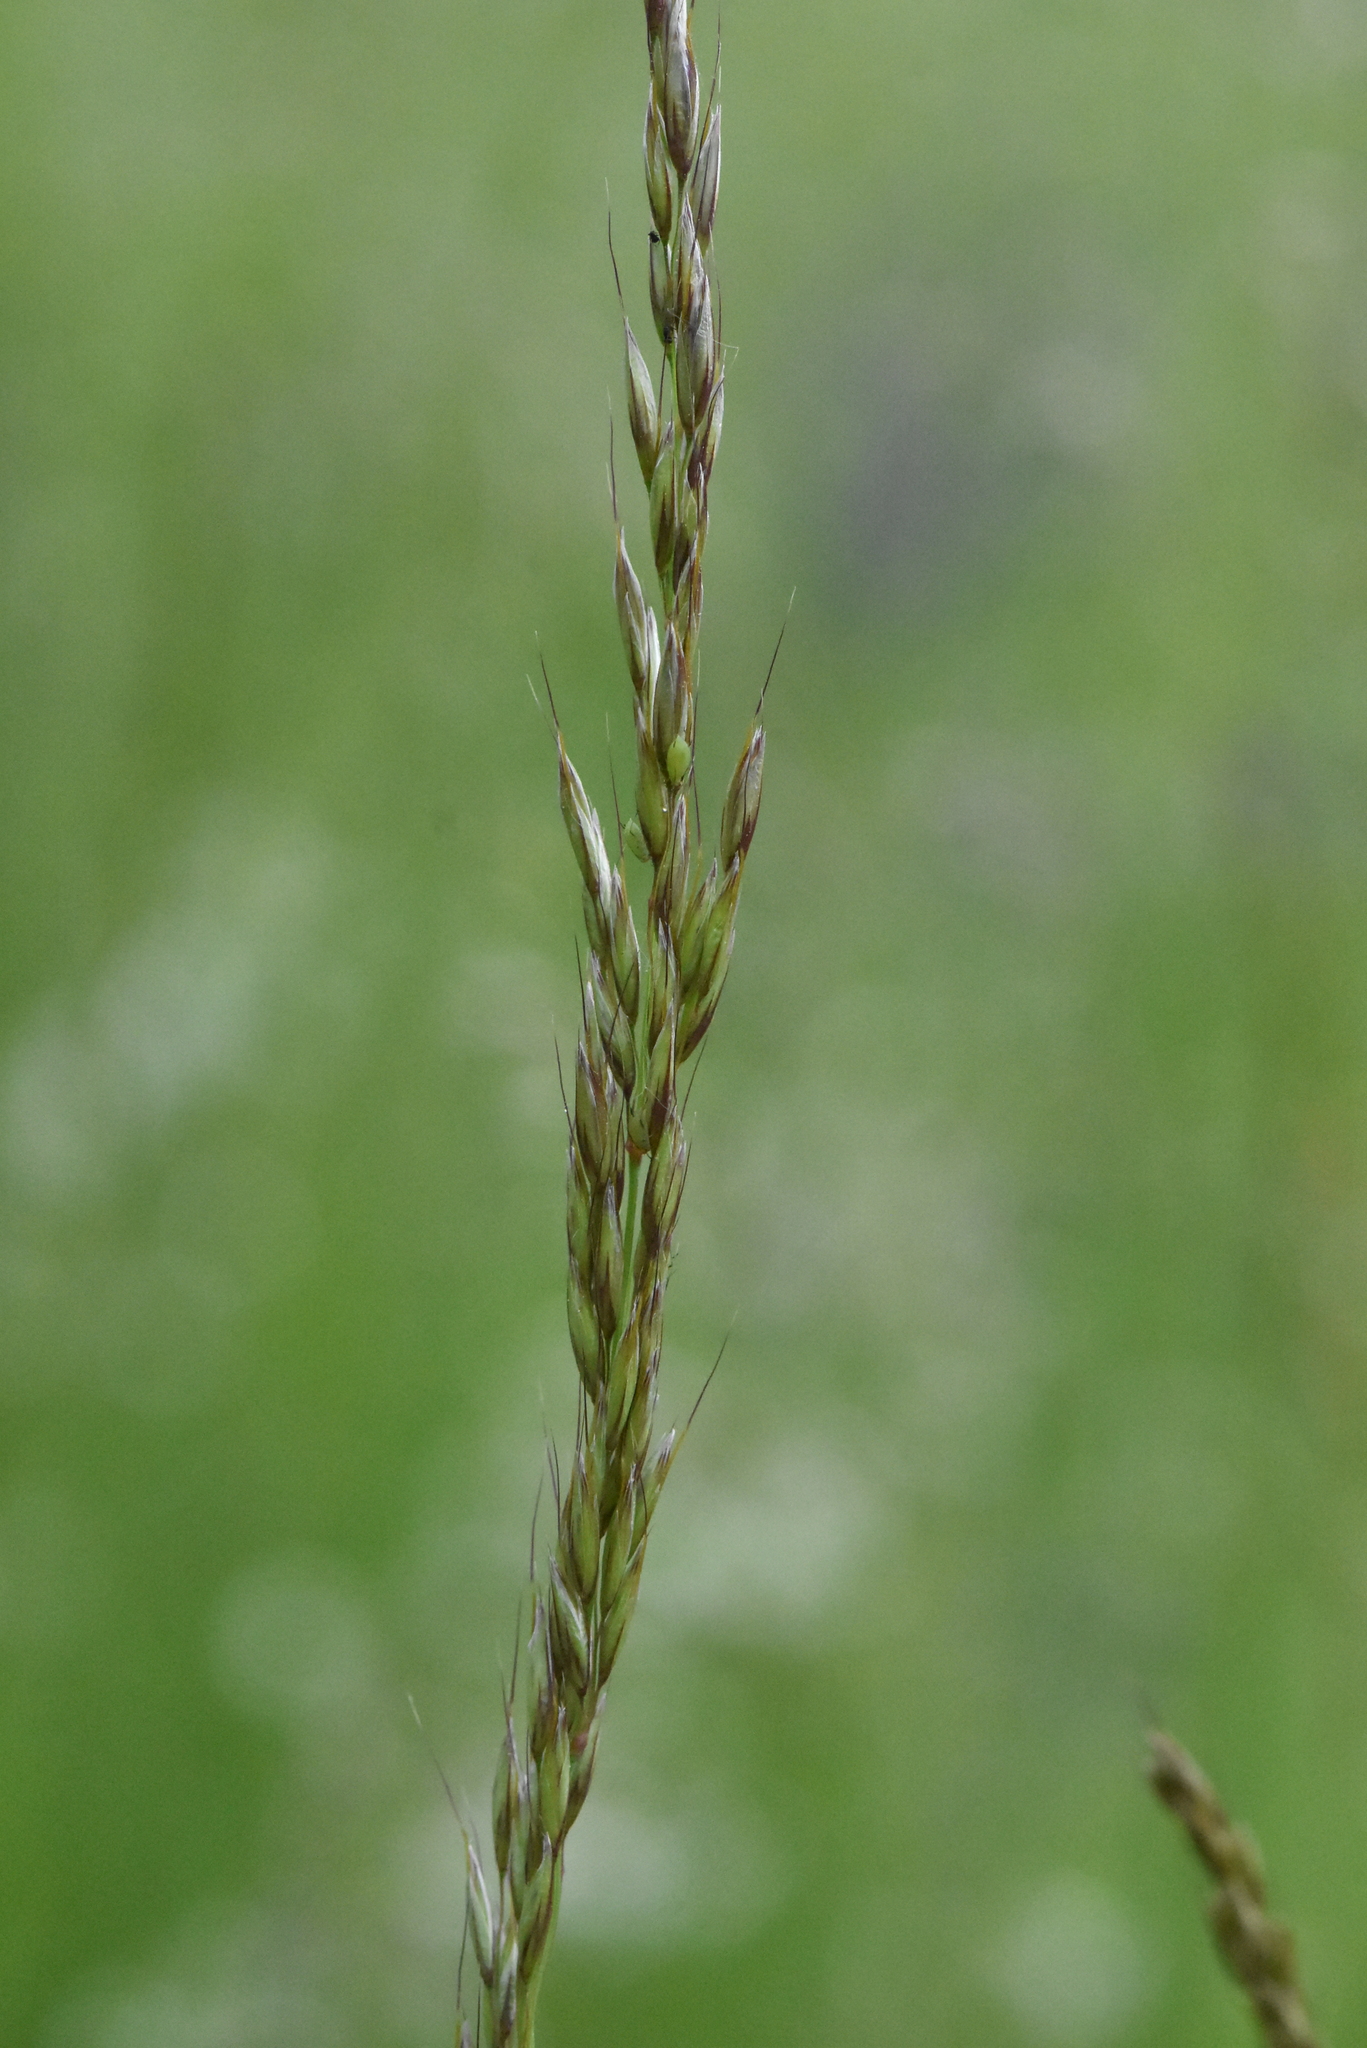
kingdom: Plantae
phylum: Tracheophyta
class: Liliopsida
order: Poales
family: Poaceae
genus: Arrhenatherum
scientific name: Arrhenatherum elatius
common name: Tall oatgrass
